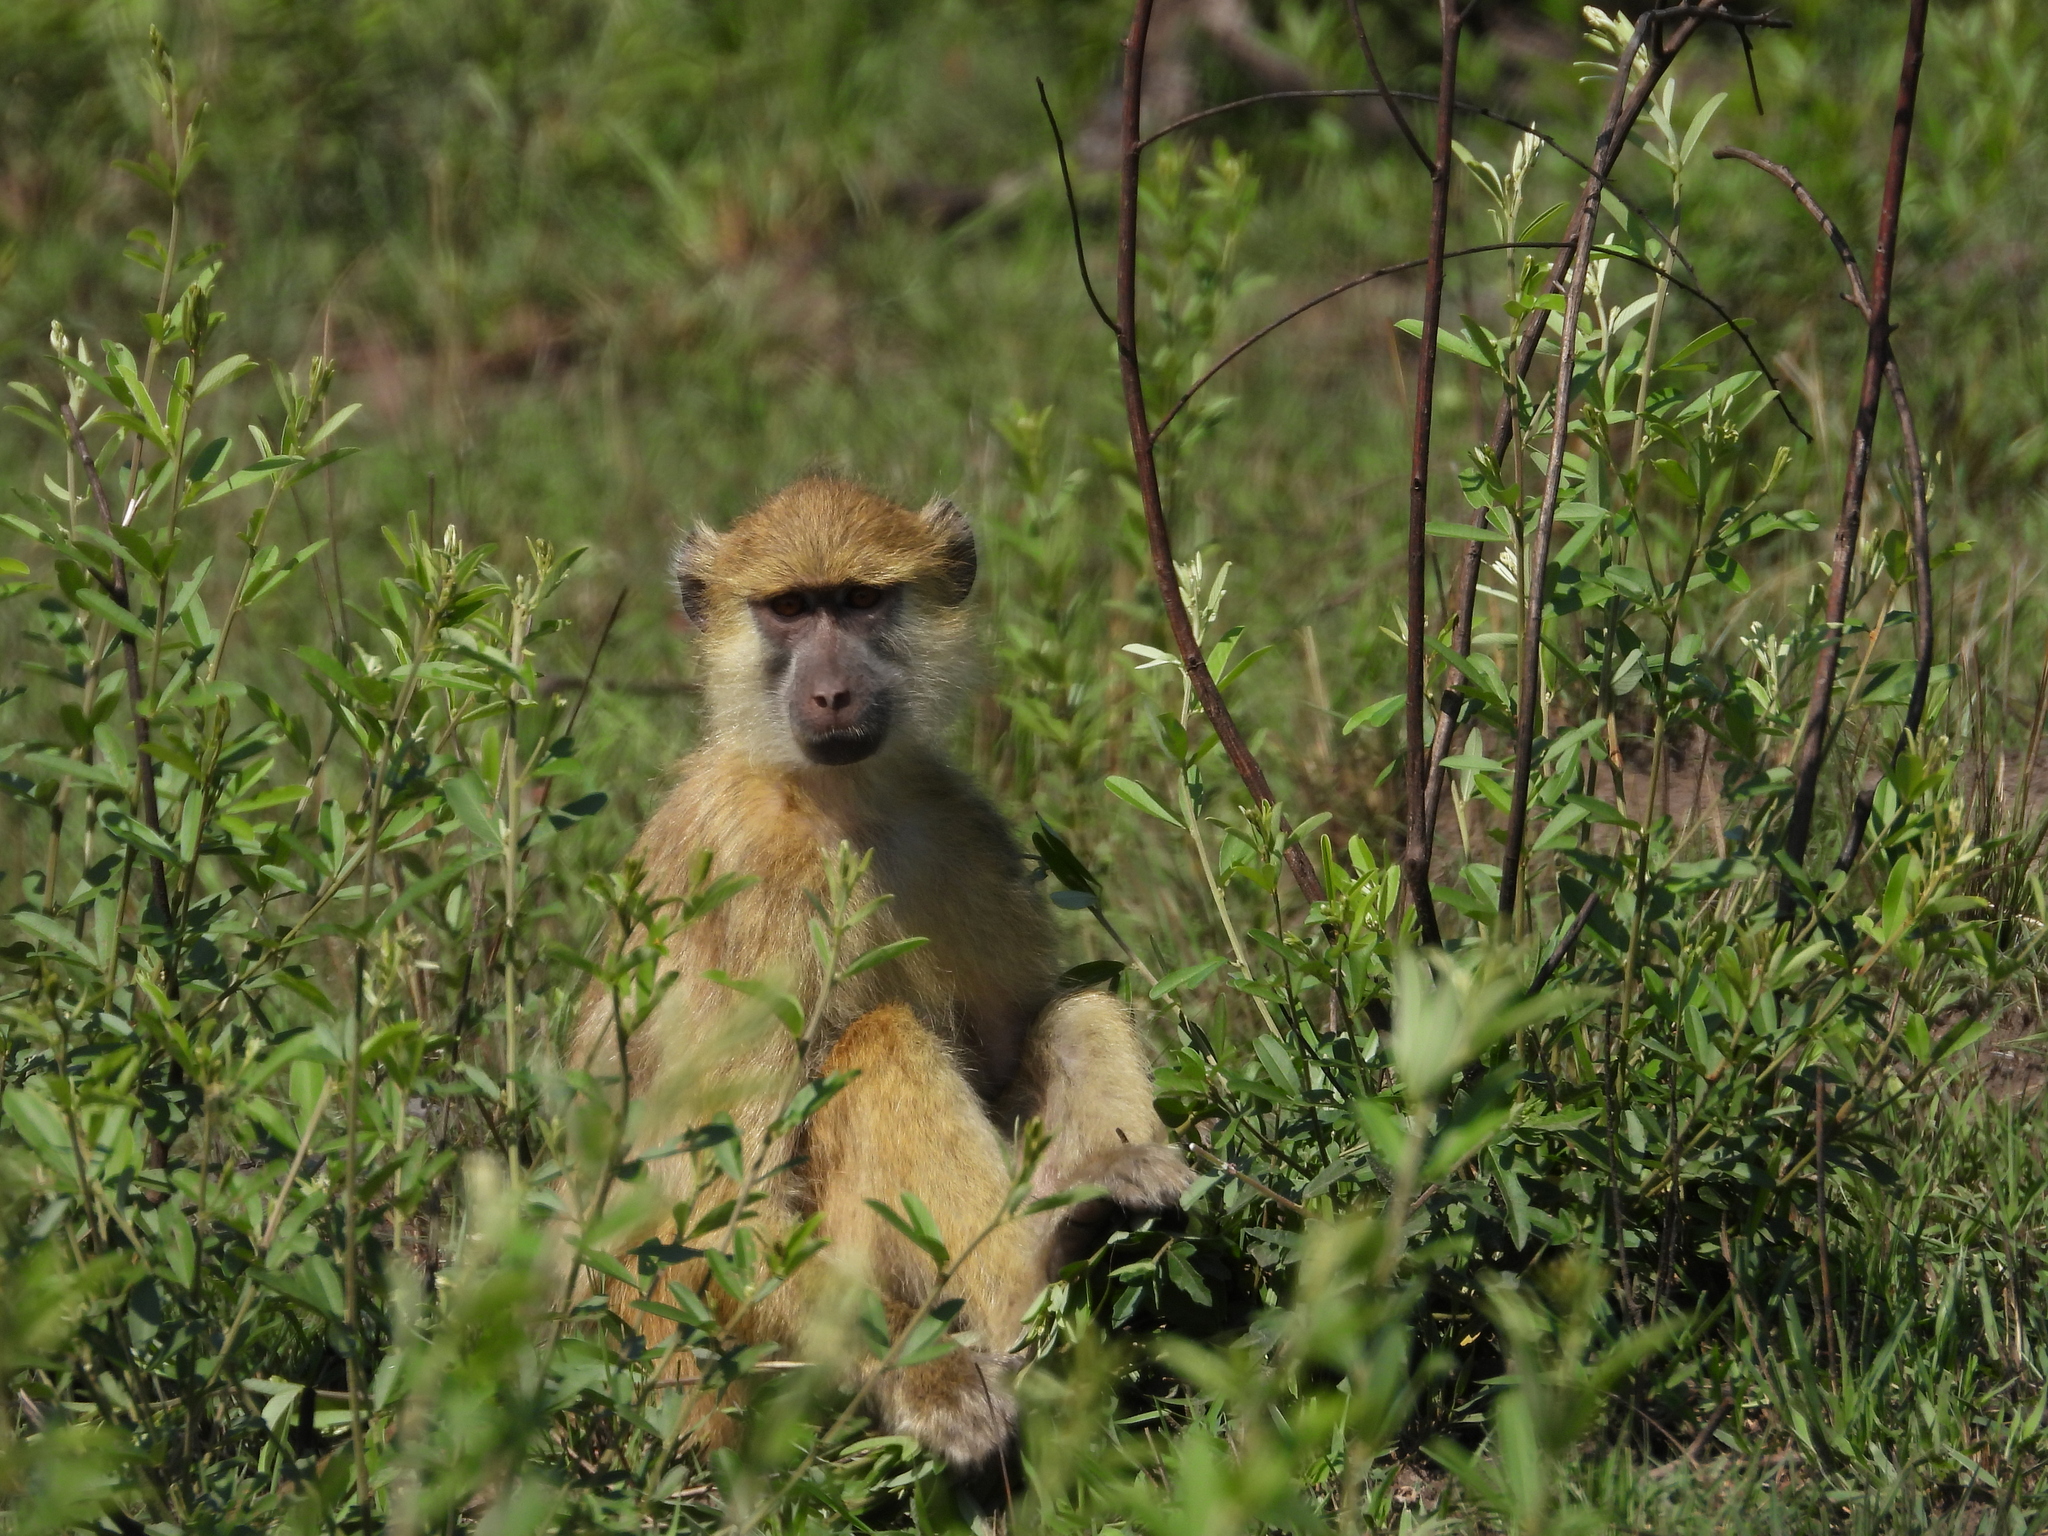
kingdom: Animalia
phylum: Chordata
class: Mammalia
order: Primates
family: Cercopithecidae
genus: Papio
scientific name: Papio kindae
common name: Kinda baboon
